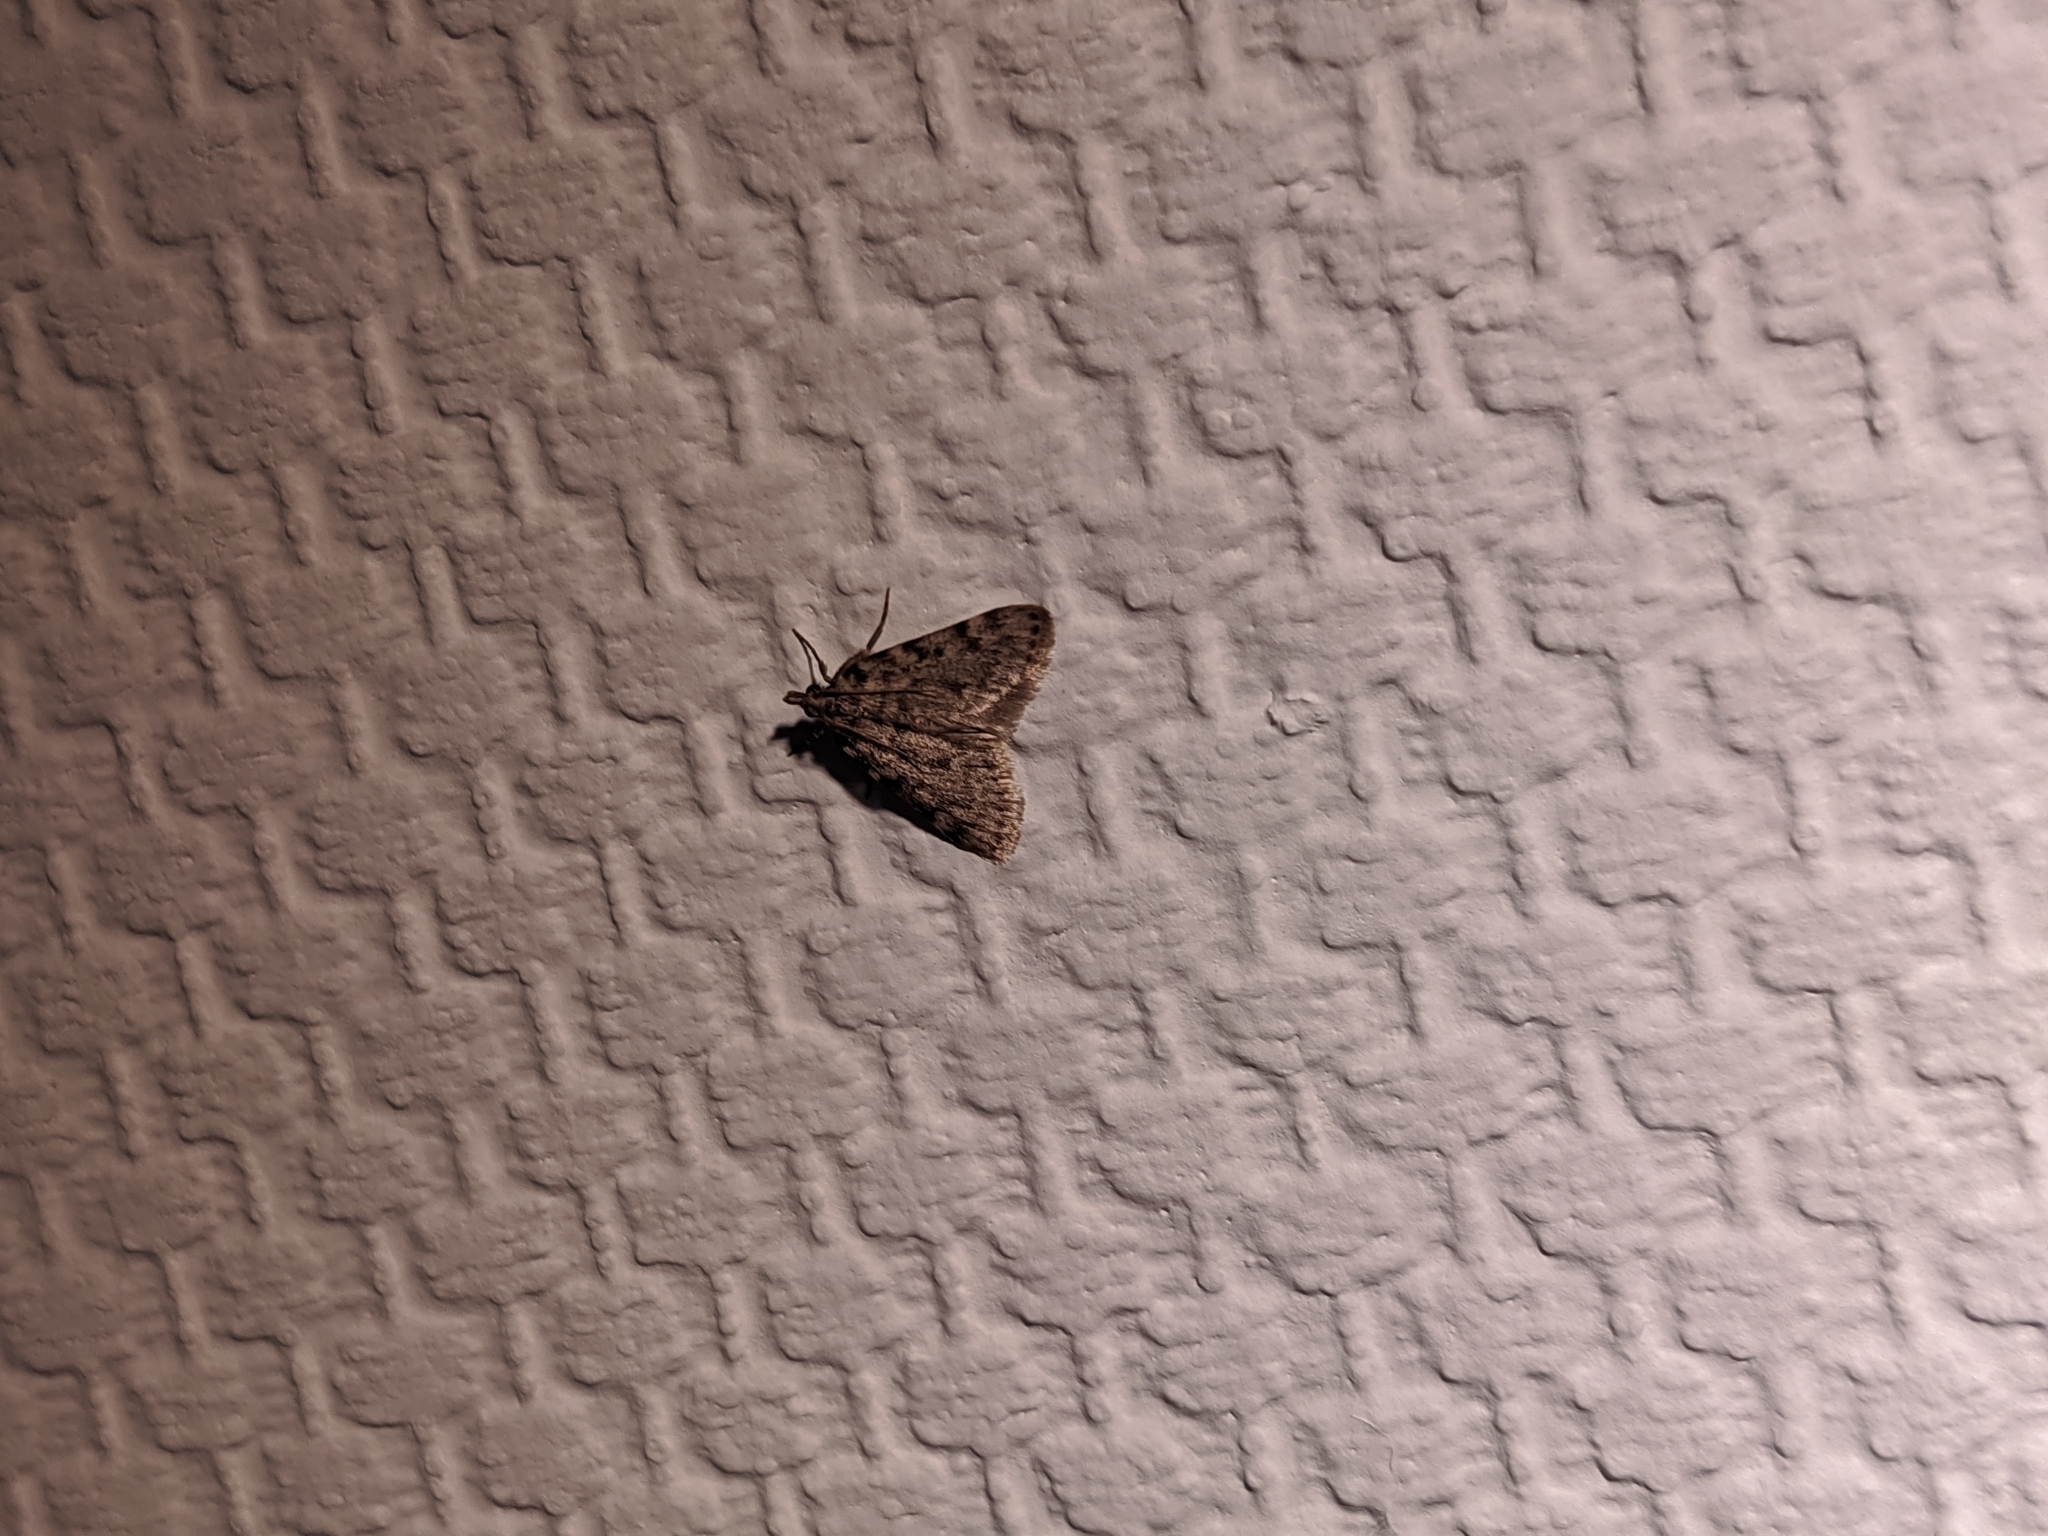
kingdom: Animalia
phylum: Arthropoda
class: Insecta
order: Lepidoptera
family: Pyralidae
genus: Aglossa
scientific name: Aglossa pinguinalis
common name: Large tabby
